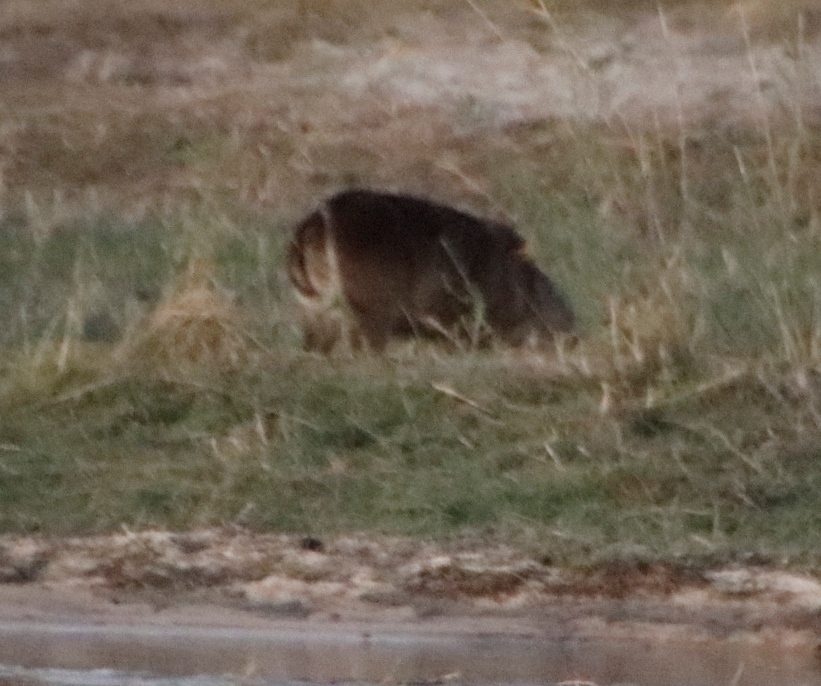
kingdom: Animalia
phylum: Chordata
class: Mammalia
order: Artiodactyla
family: Bovidae
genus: Kobus
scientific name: Kobus ellipsiprymnus
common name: Waterbuck
